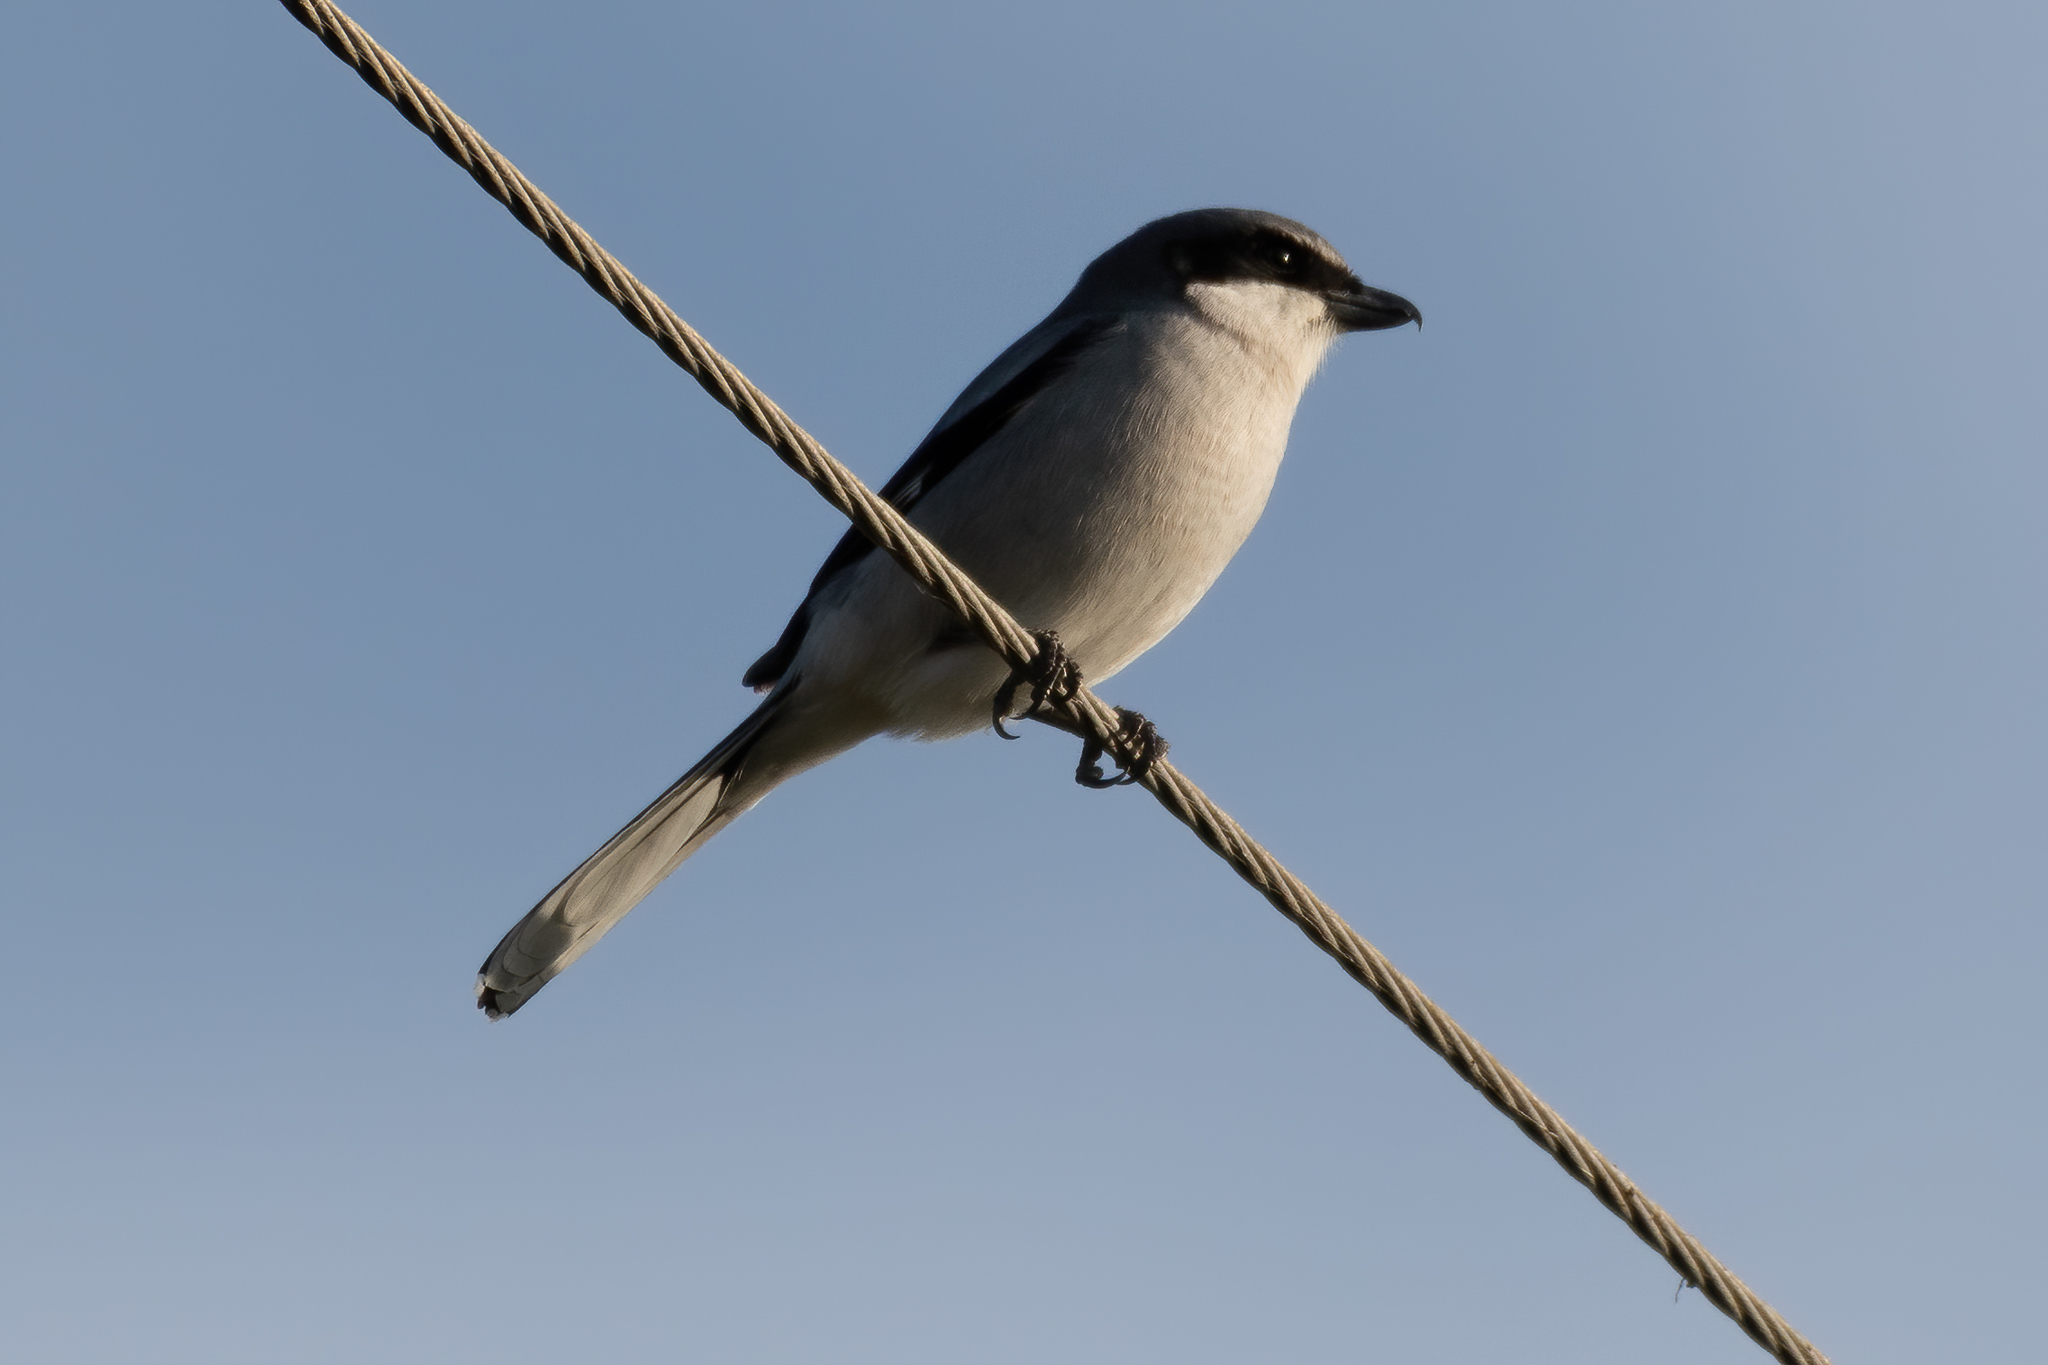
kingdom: Animalia
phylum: Chordata
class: Aves
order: Passeriformes
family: Laniidae
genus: Lanius
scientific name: Lanius ludovicianus
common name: Loggerhead shrike
